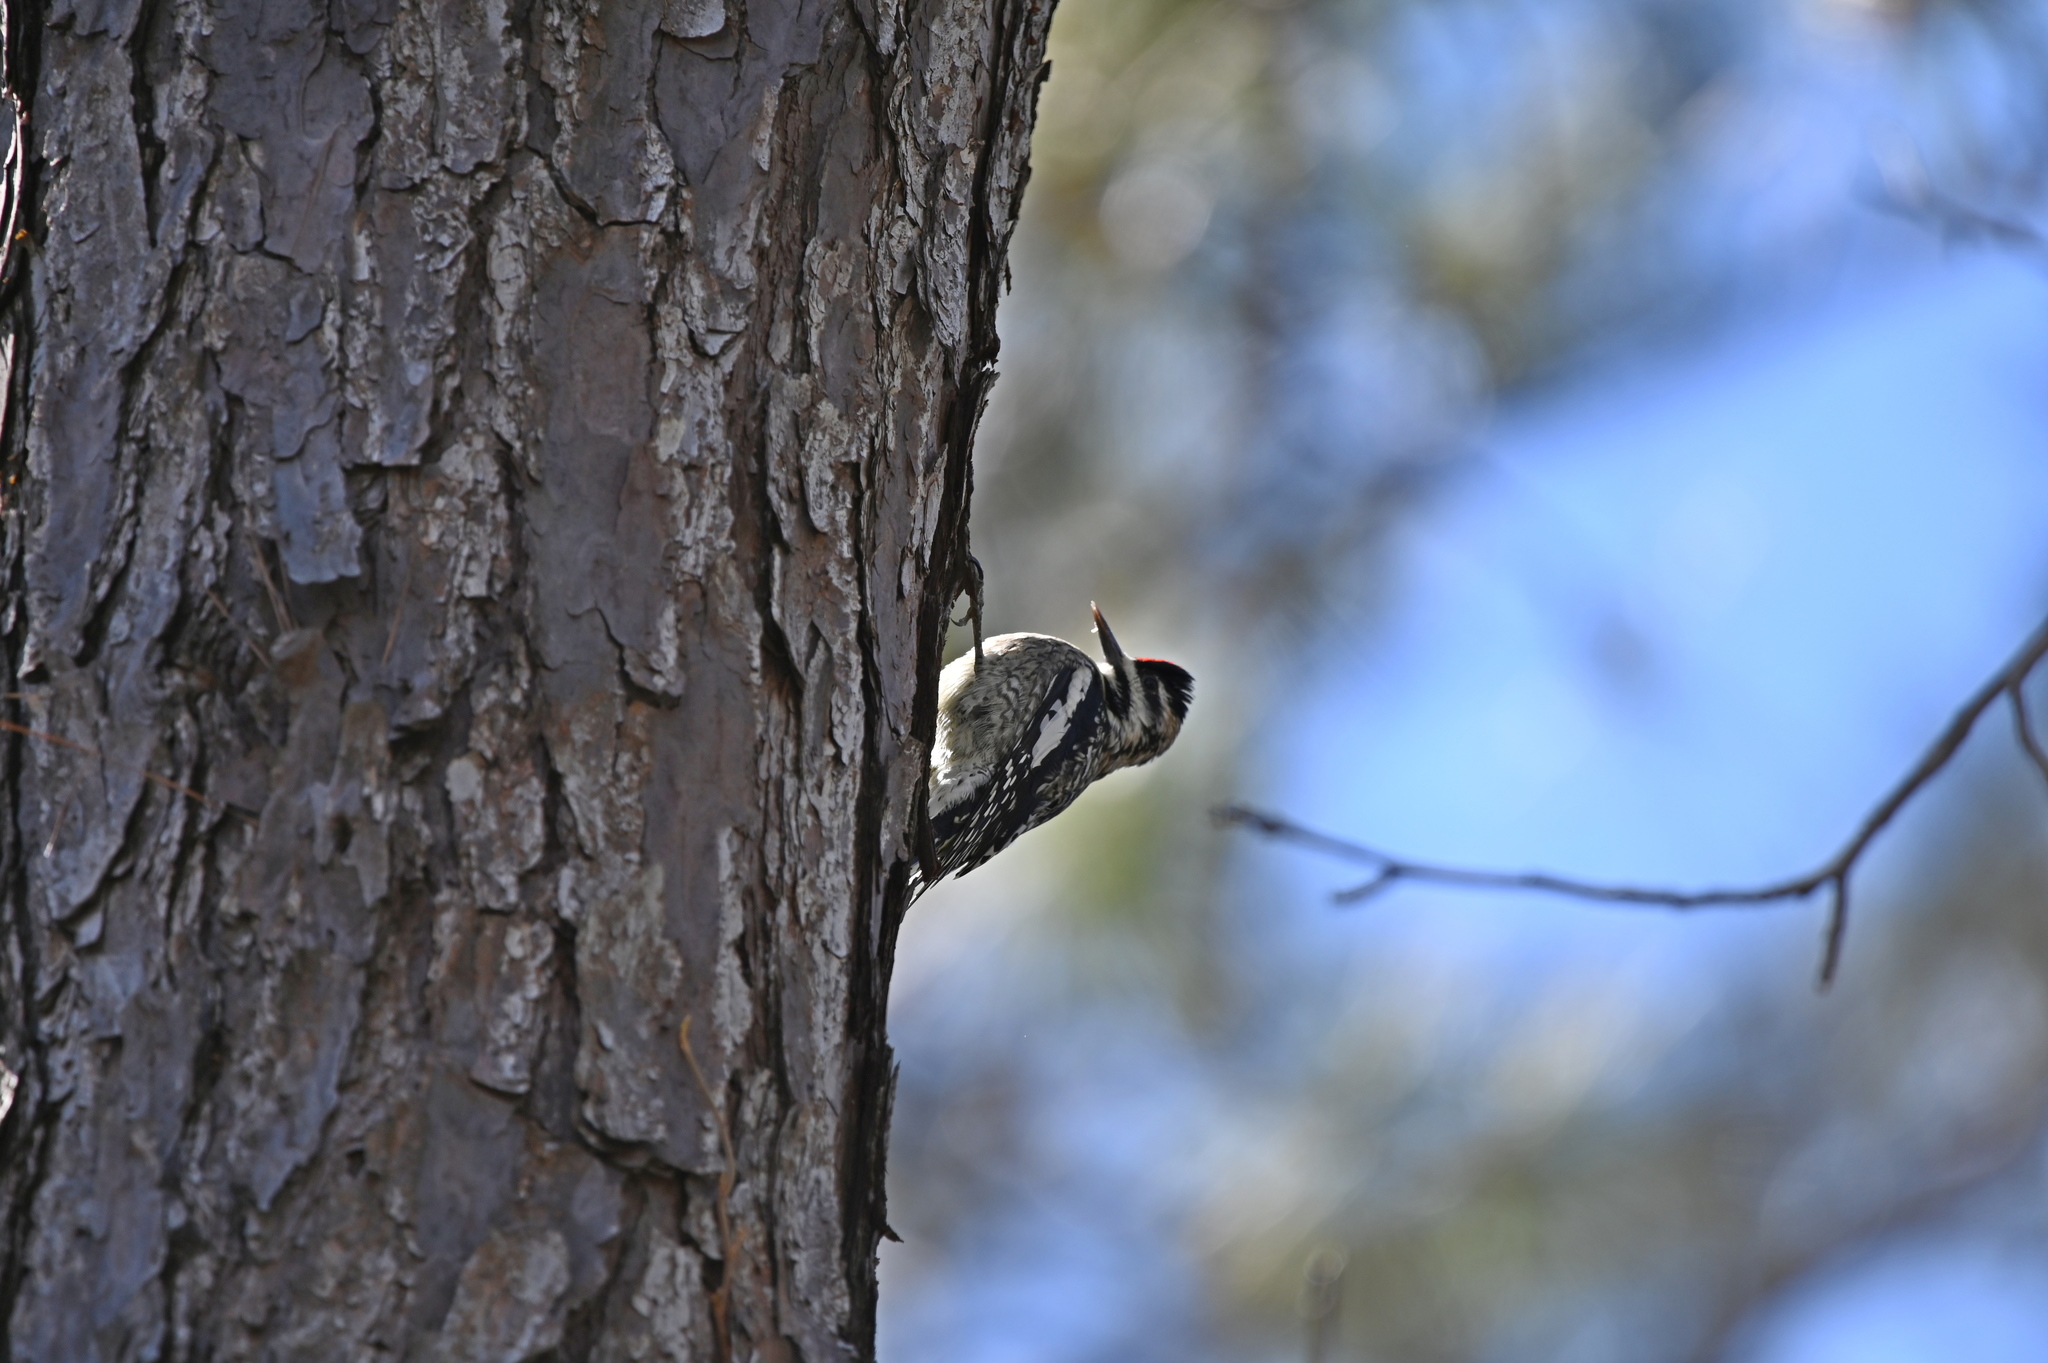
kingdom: Animalia
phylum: Chordata
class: Aves
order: Piciformes
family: Picidae
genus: Sphyrapicus
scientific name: Sphyrapicus varius
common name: Yellow-bellied sapsucker
